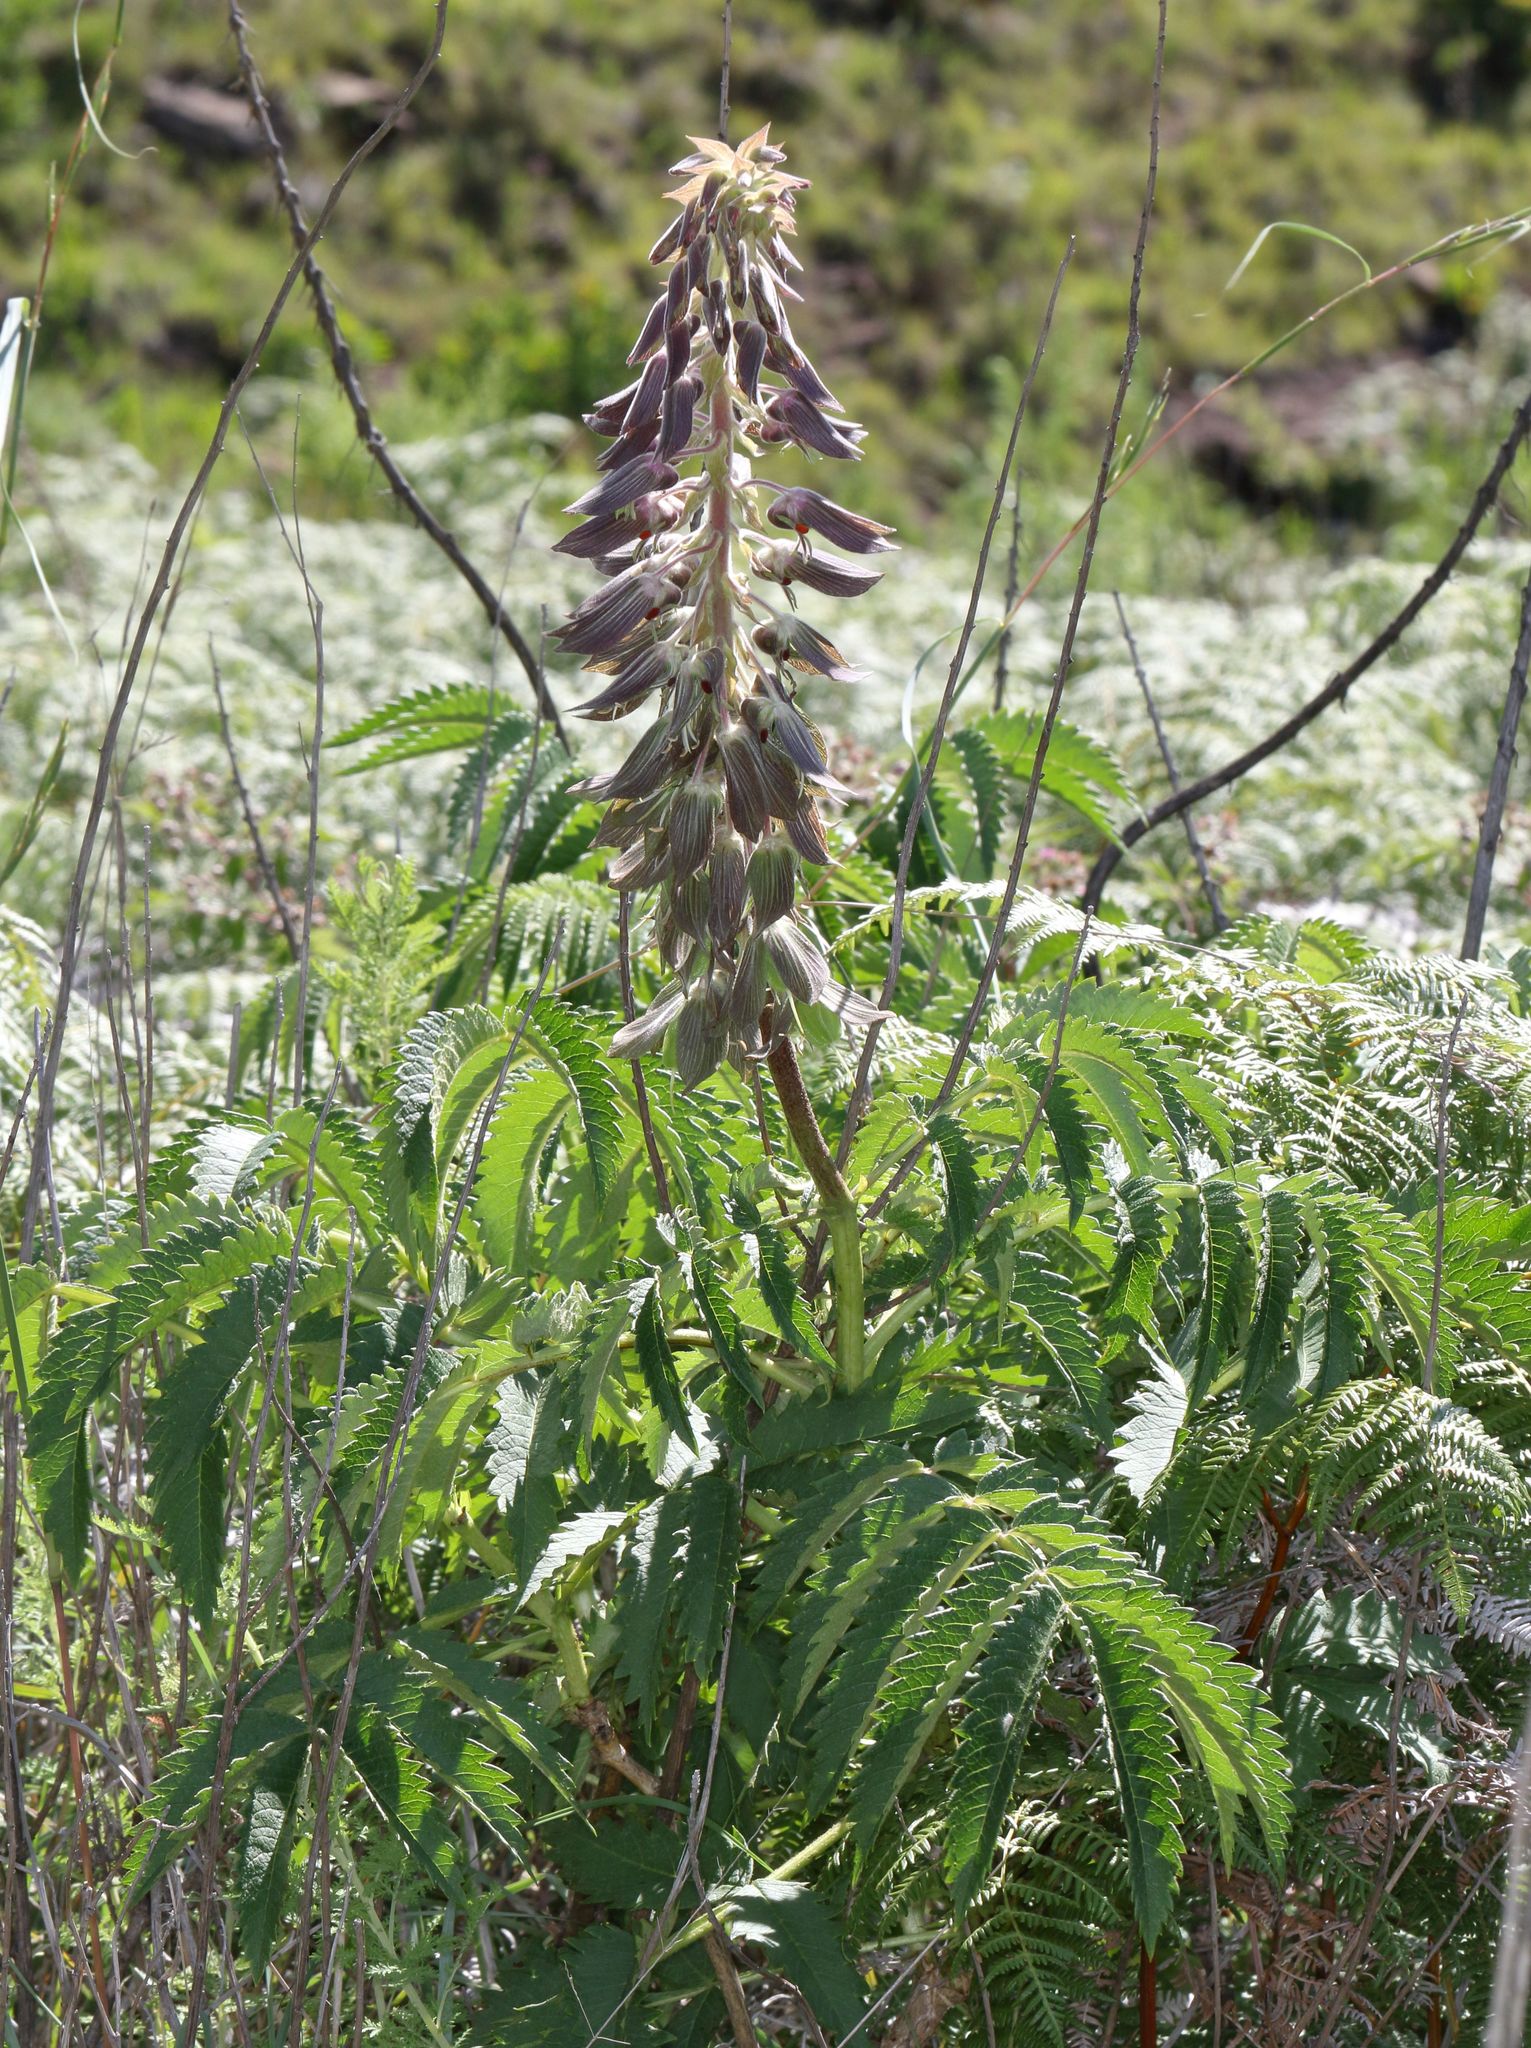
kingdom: Plantae
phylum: Tracheophyta
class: Magnoliopsida
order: Geraniales
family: Melianthaceae
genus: Melianthus
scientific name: Melianthus villosus
